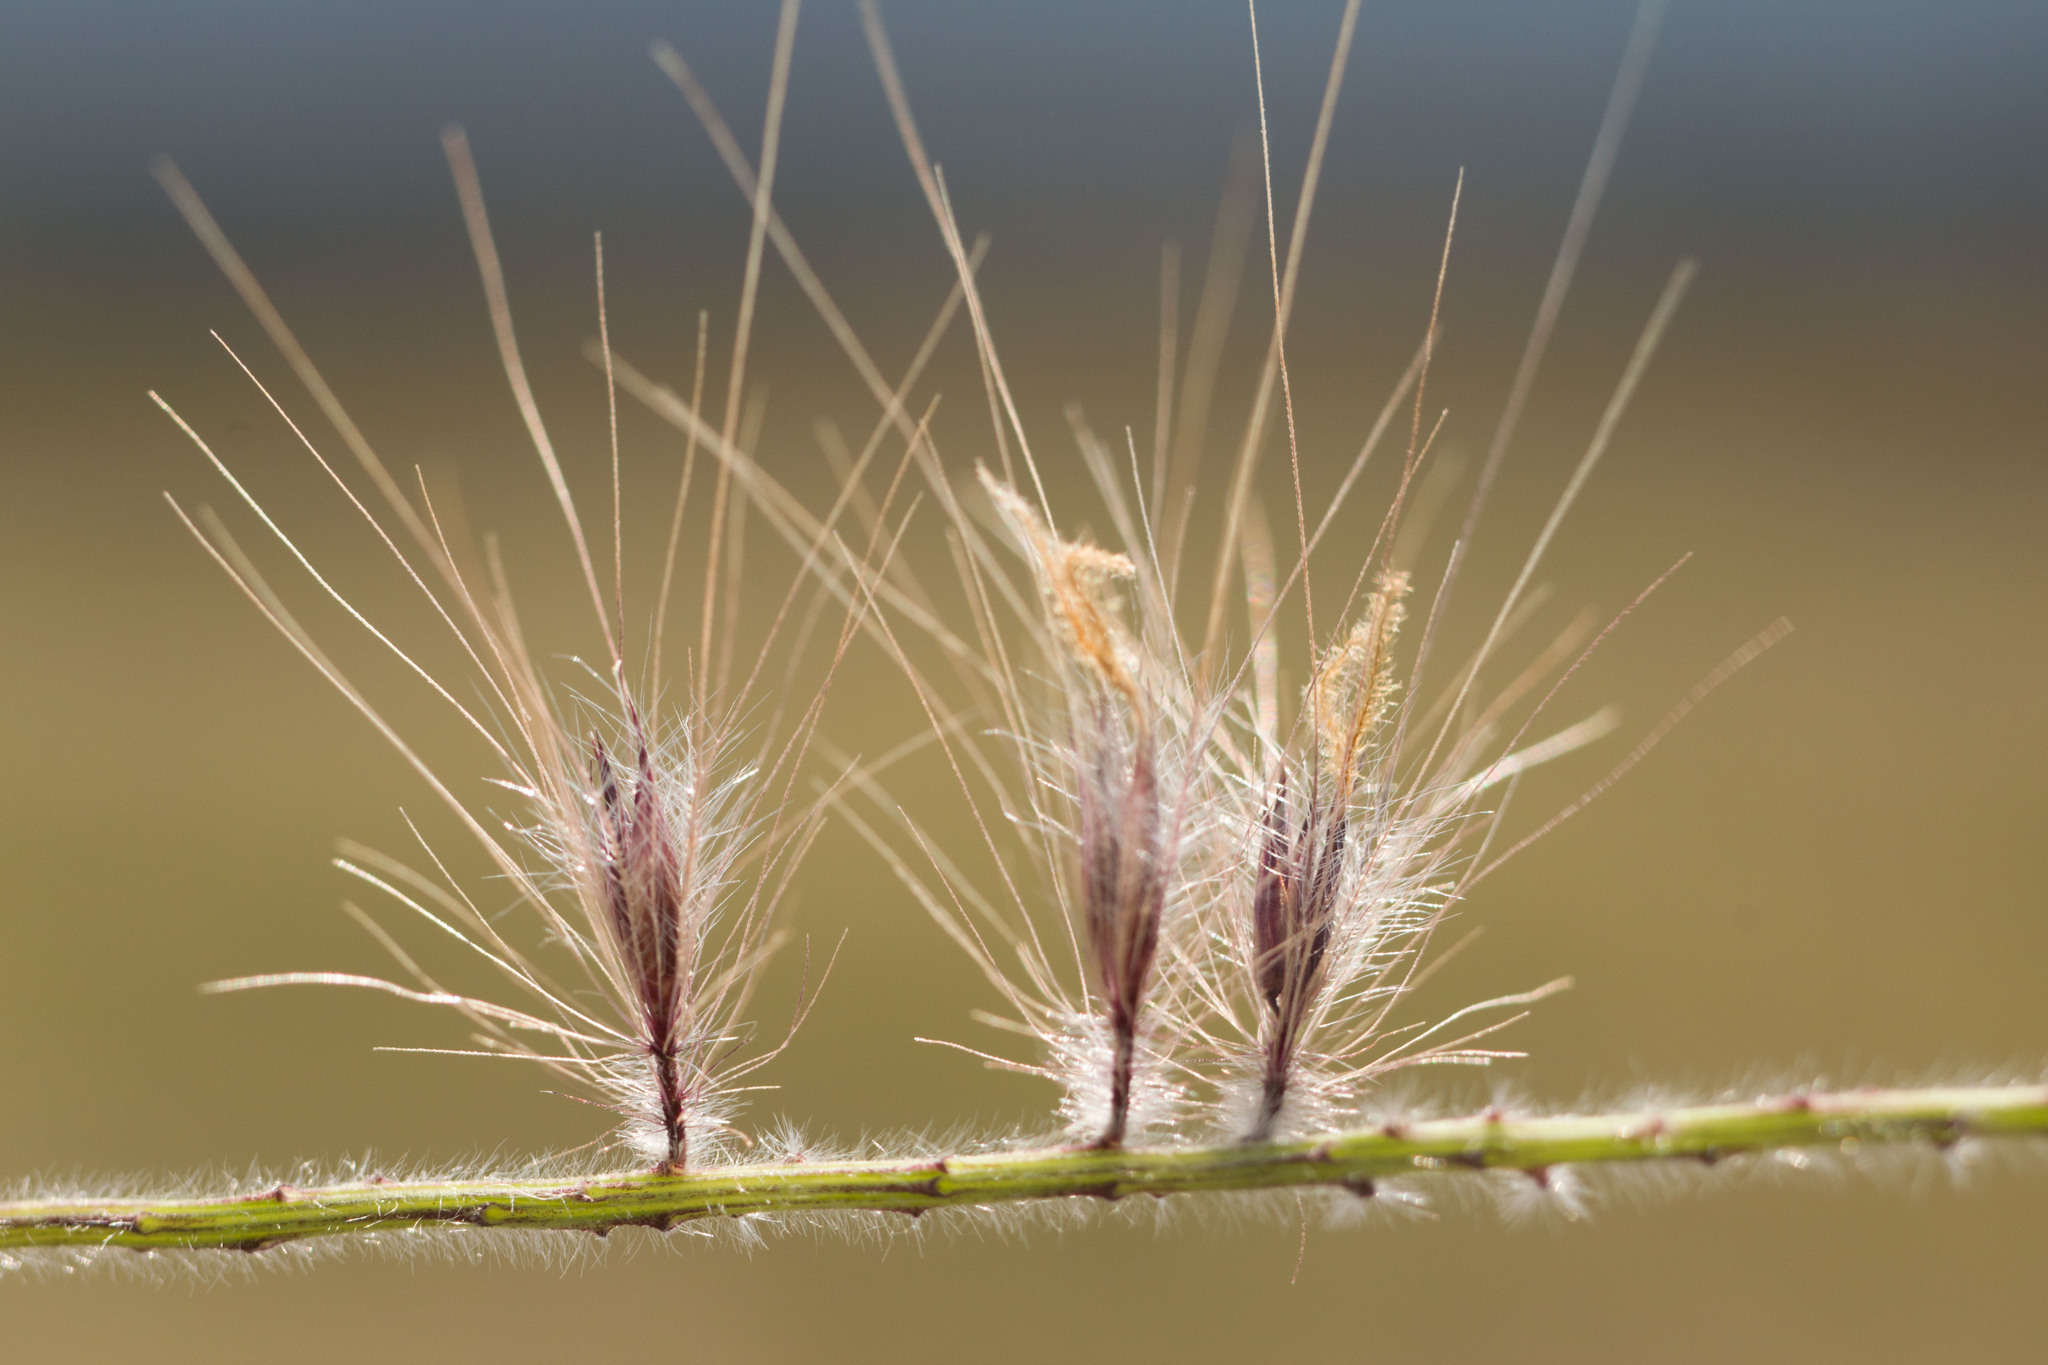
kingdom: Plantae
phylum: Tracheophyta
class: Liliopsida
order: Poales
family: Poaceae
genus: Cenchrus
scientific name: Cenchrus setaceus
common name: Crimson fountaingrass
